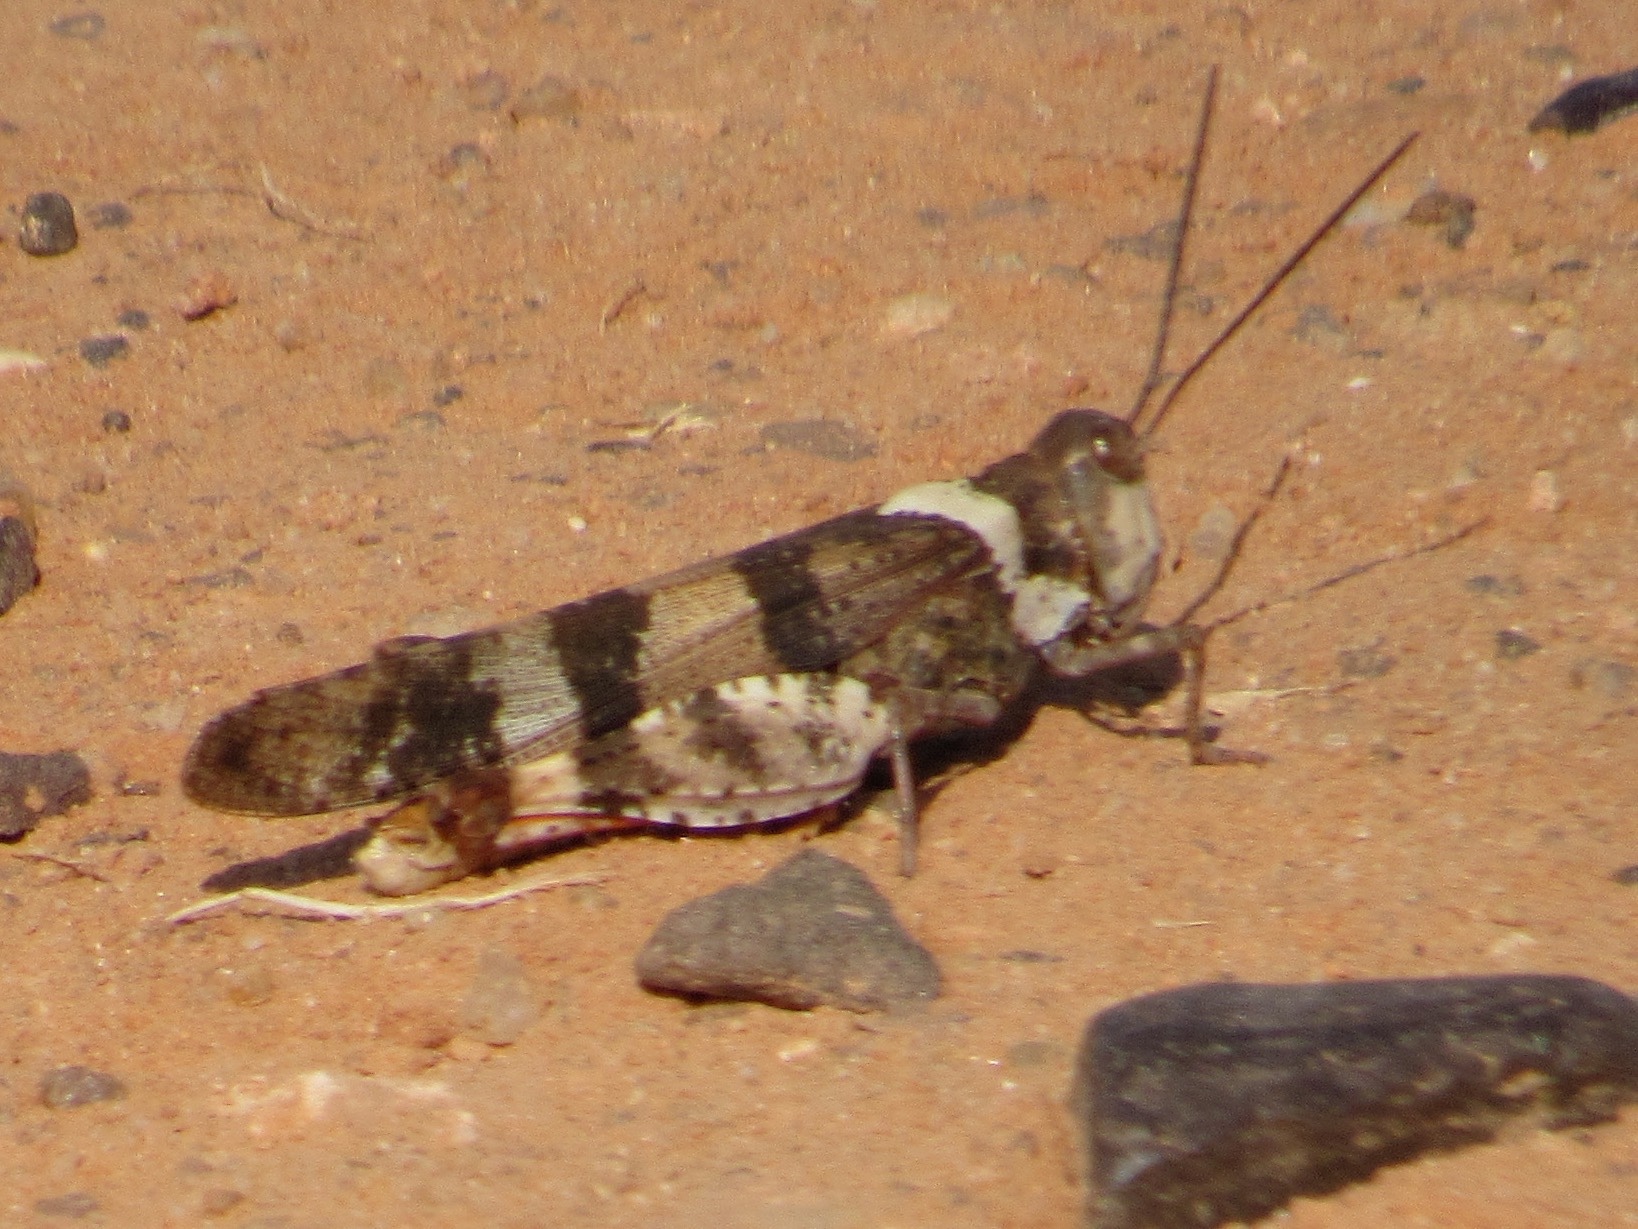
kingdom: Animalia
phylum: Arthropoda
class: Insecta
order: Orthoptera
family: Acrididae
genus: Spharagemon
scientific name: Spharagemon equale
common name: Orange-legged grasshopper
